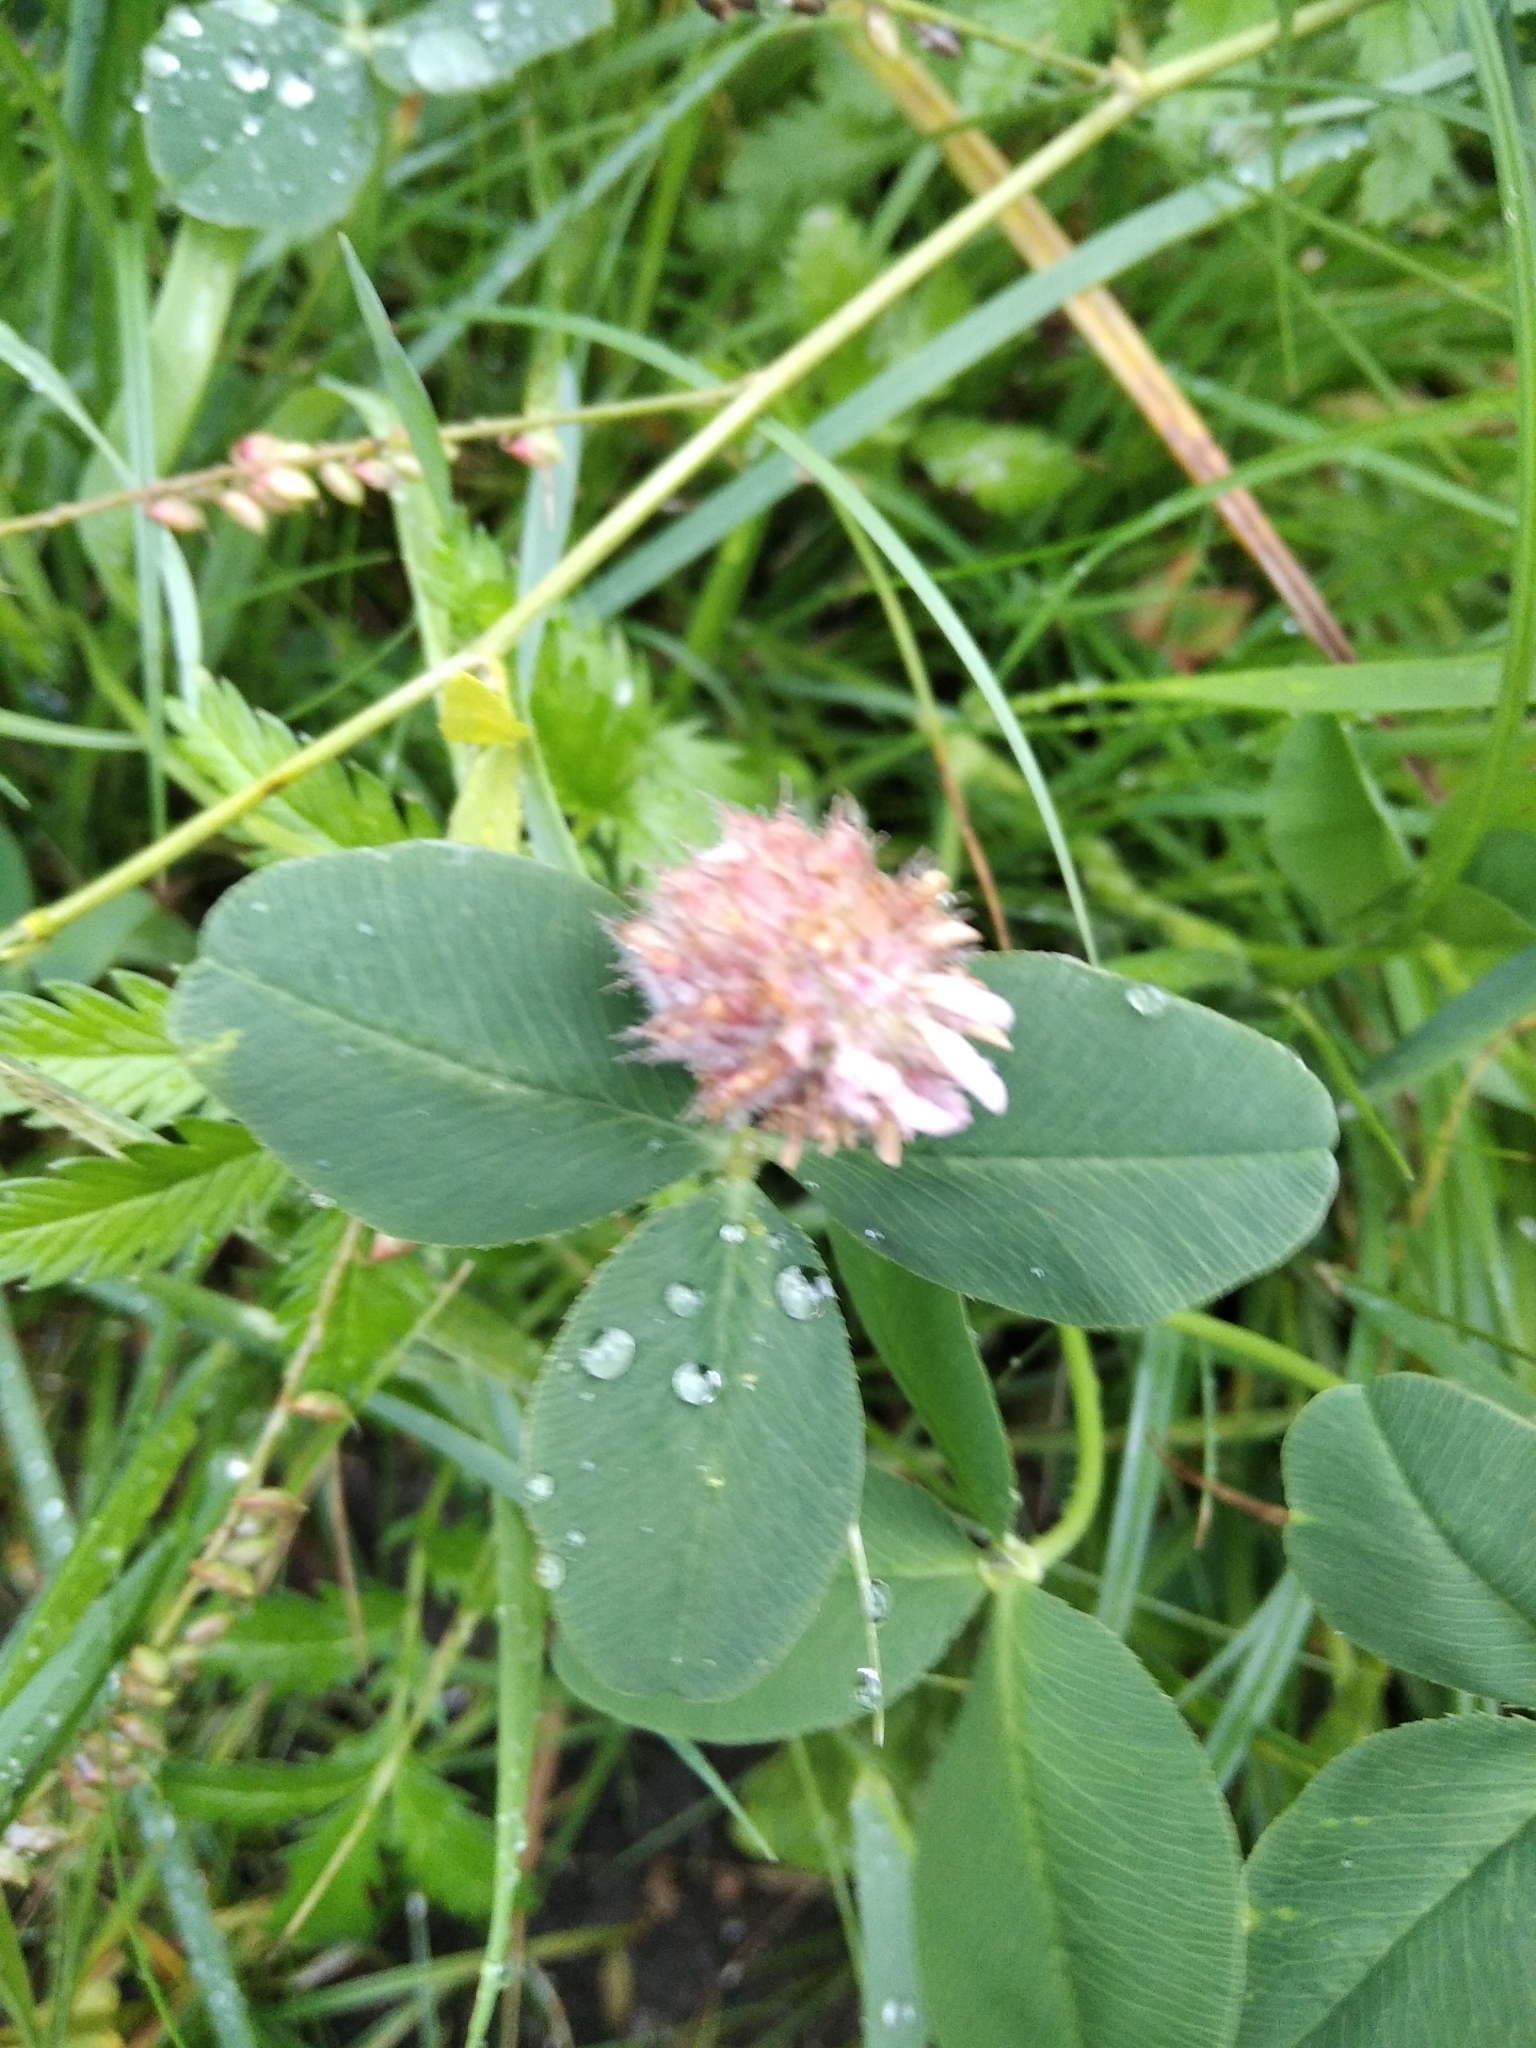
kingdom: Plantae
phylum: Tracheophyta
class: Magnoliopsida
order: Fabales
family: Fabaceae
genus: Trifolium
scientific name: Trifolium fragiferum
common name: Strawberry clover
